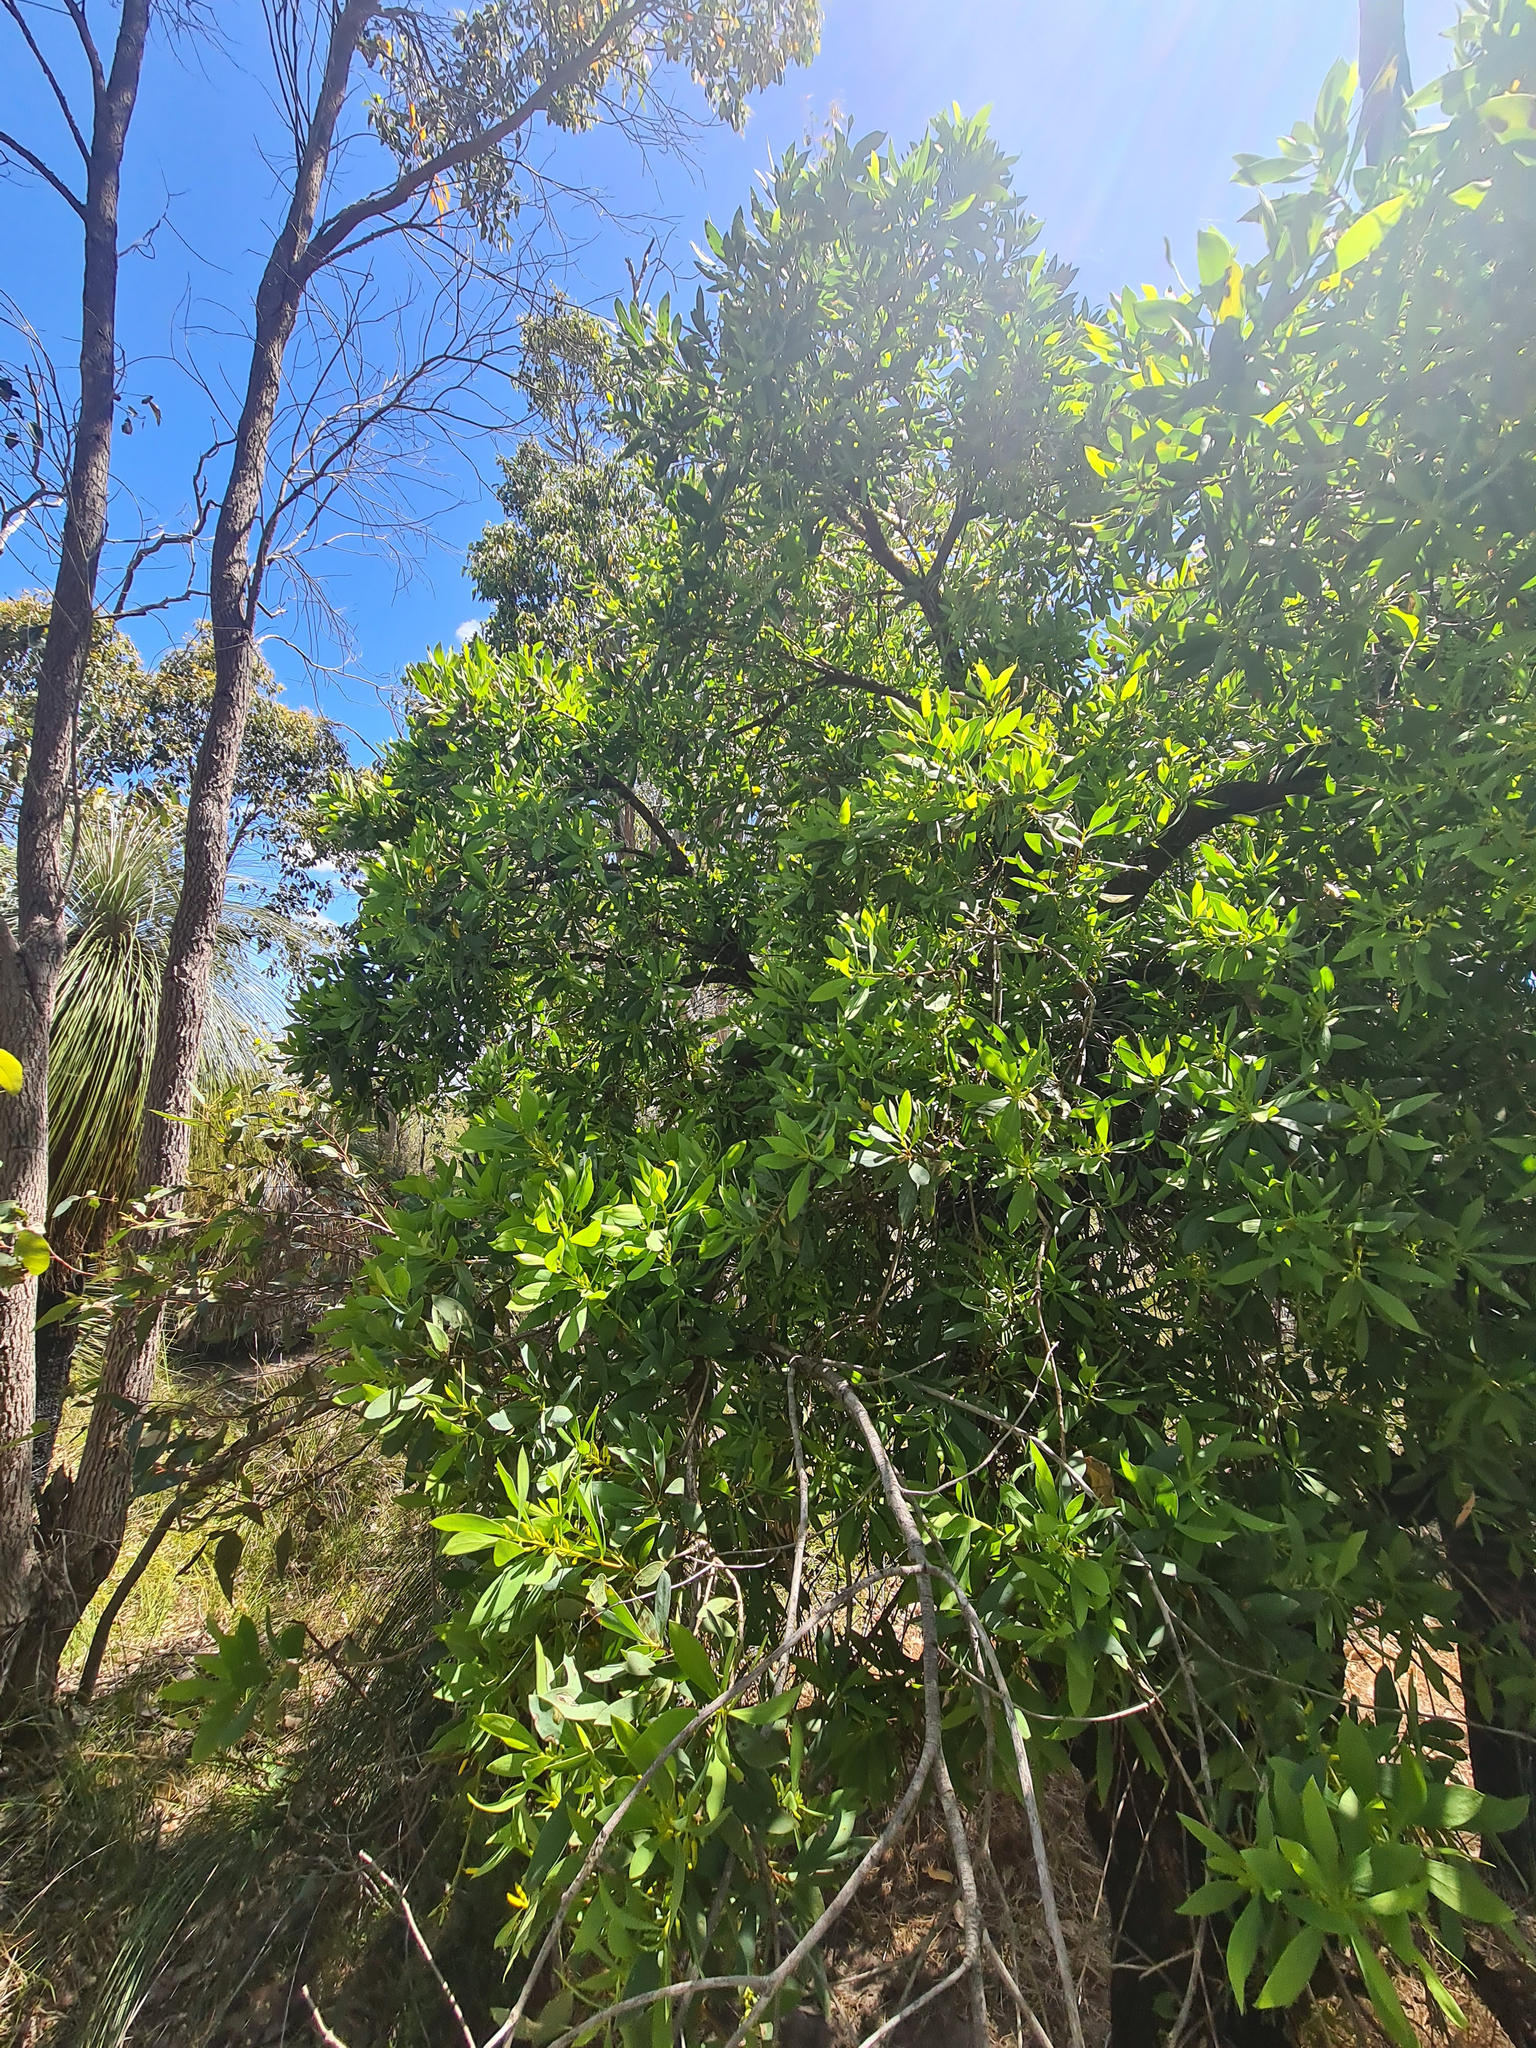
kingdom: Plantae
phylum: Tracheophyta
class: Magnoliopsida
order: Proteales
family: Proteaceae
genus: Persoonia
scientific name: Persoonia elliptica
